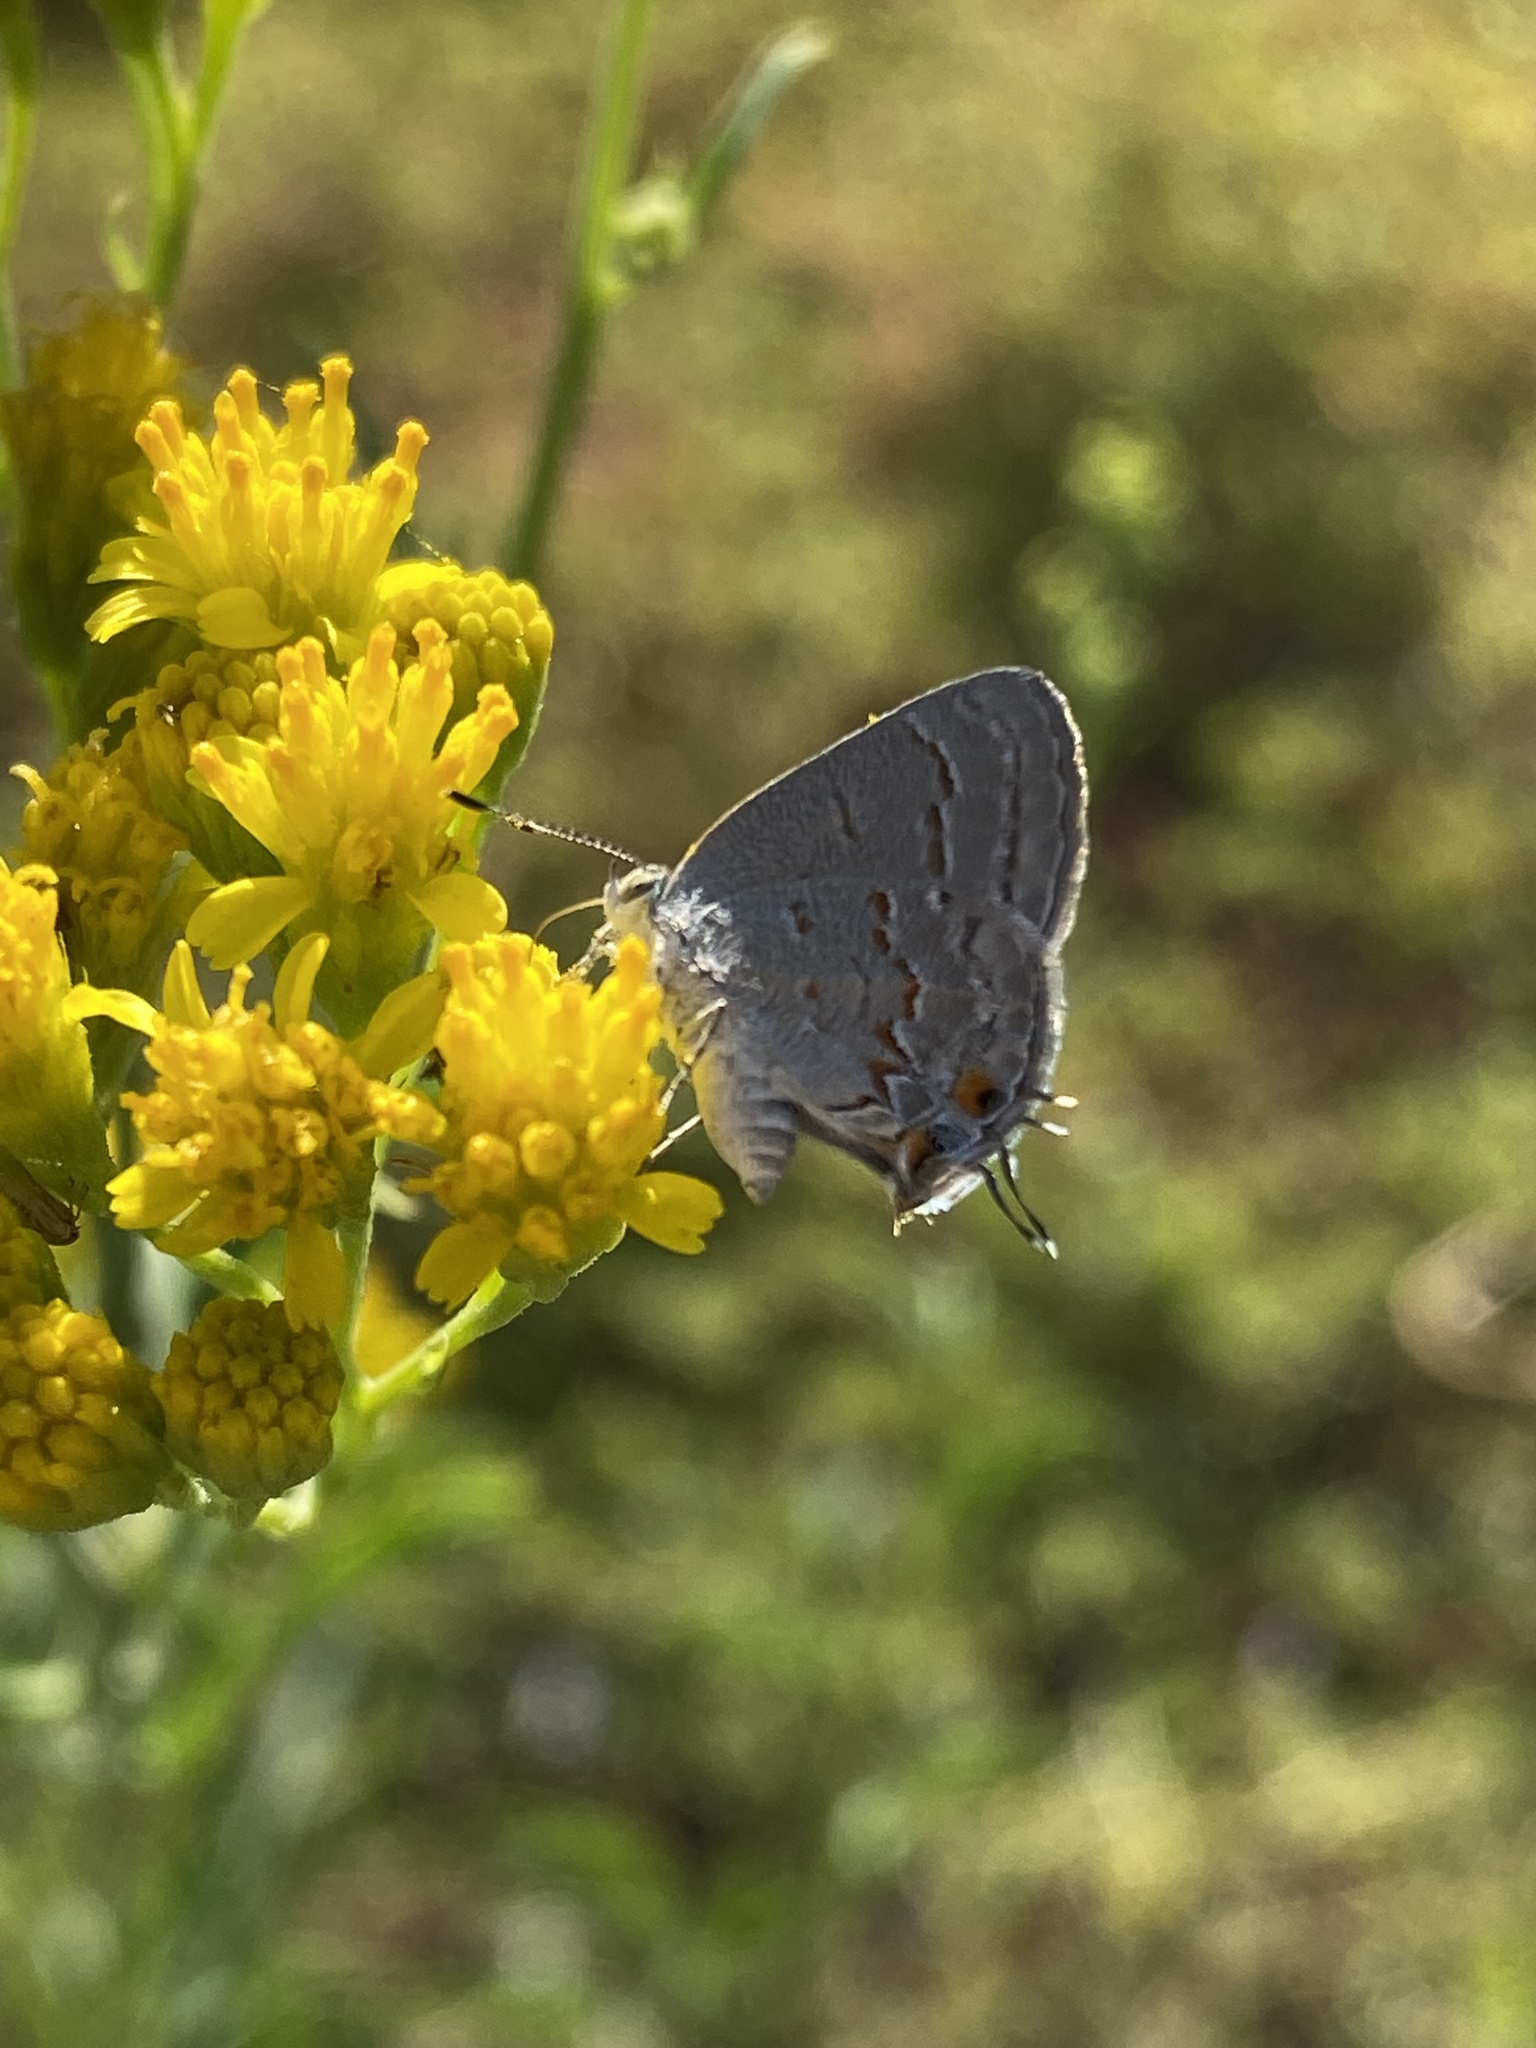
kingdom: Animalia
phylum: Arthropoda
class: Insecta
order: Lepidoptera
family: Lycaenidae
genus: Ministrymon
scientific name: Ministrymon leda
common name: Leda ministreak
